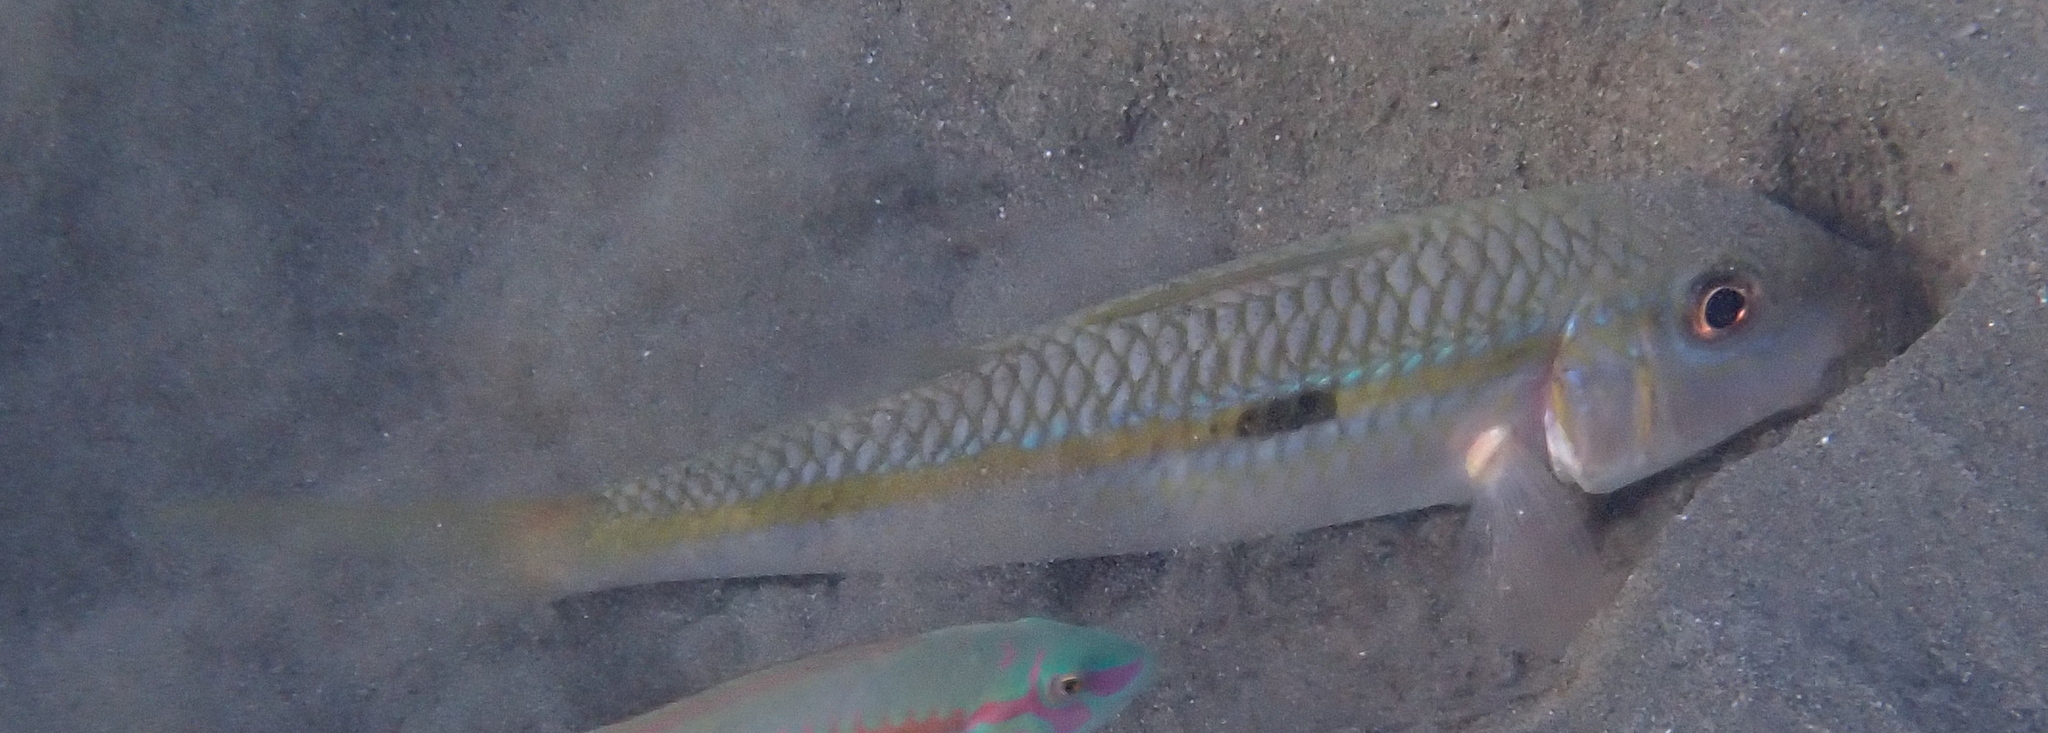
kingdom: Animalia
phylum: Chordata
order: Perciformes
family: Mullidae
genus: Mulloidichthys
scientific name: Mulloidichthys flavolineatus
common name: Yellowstripe goatfish
